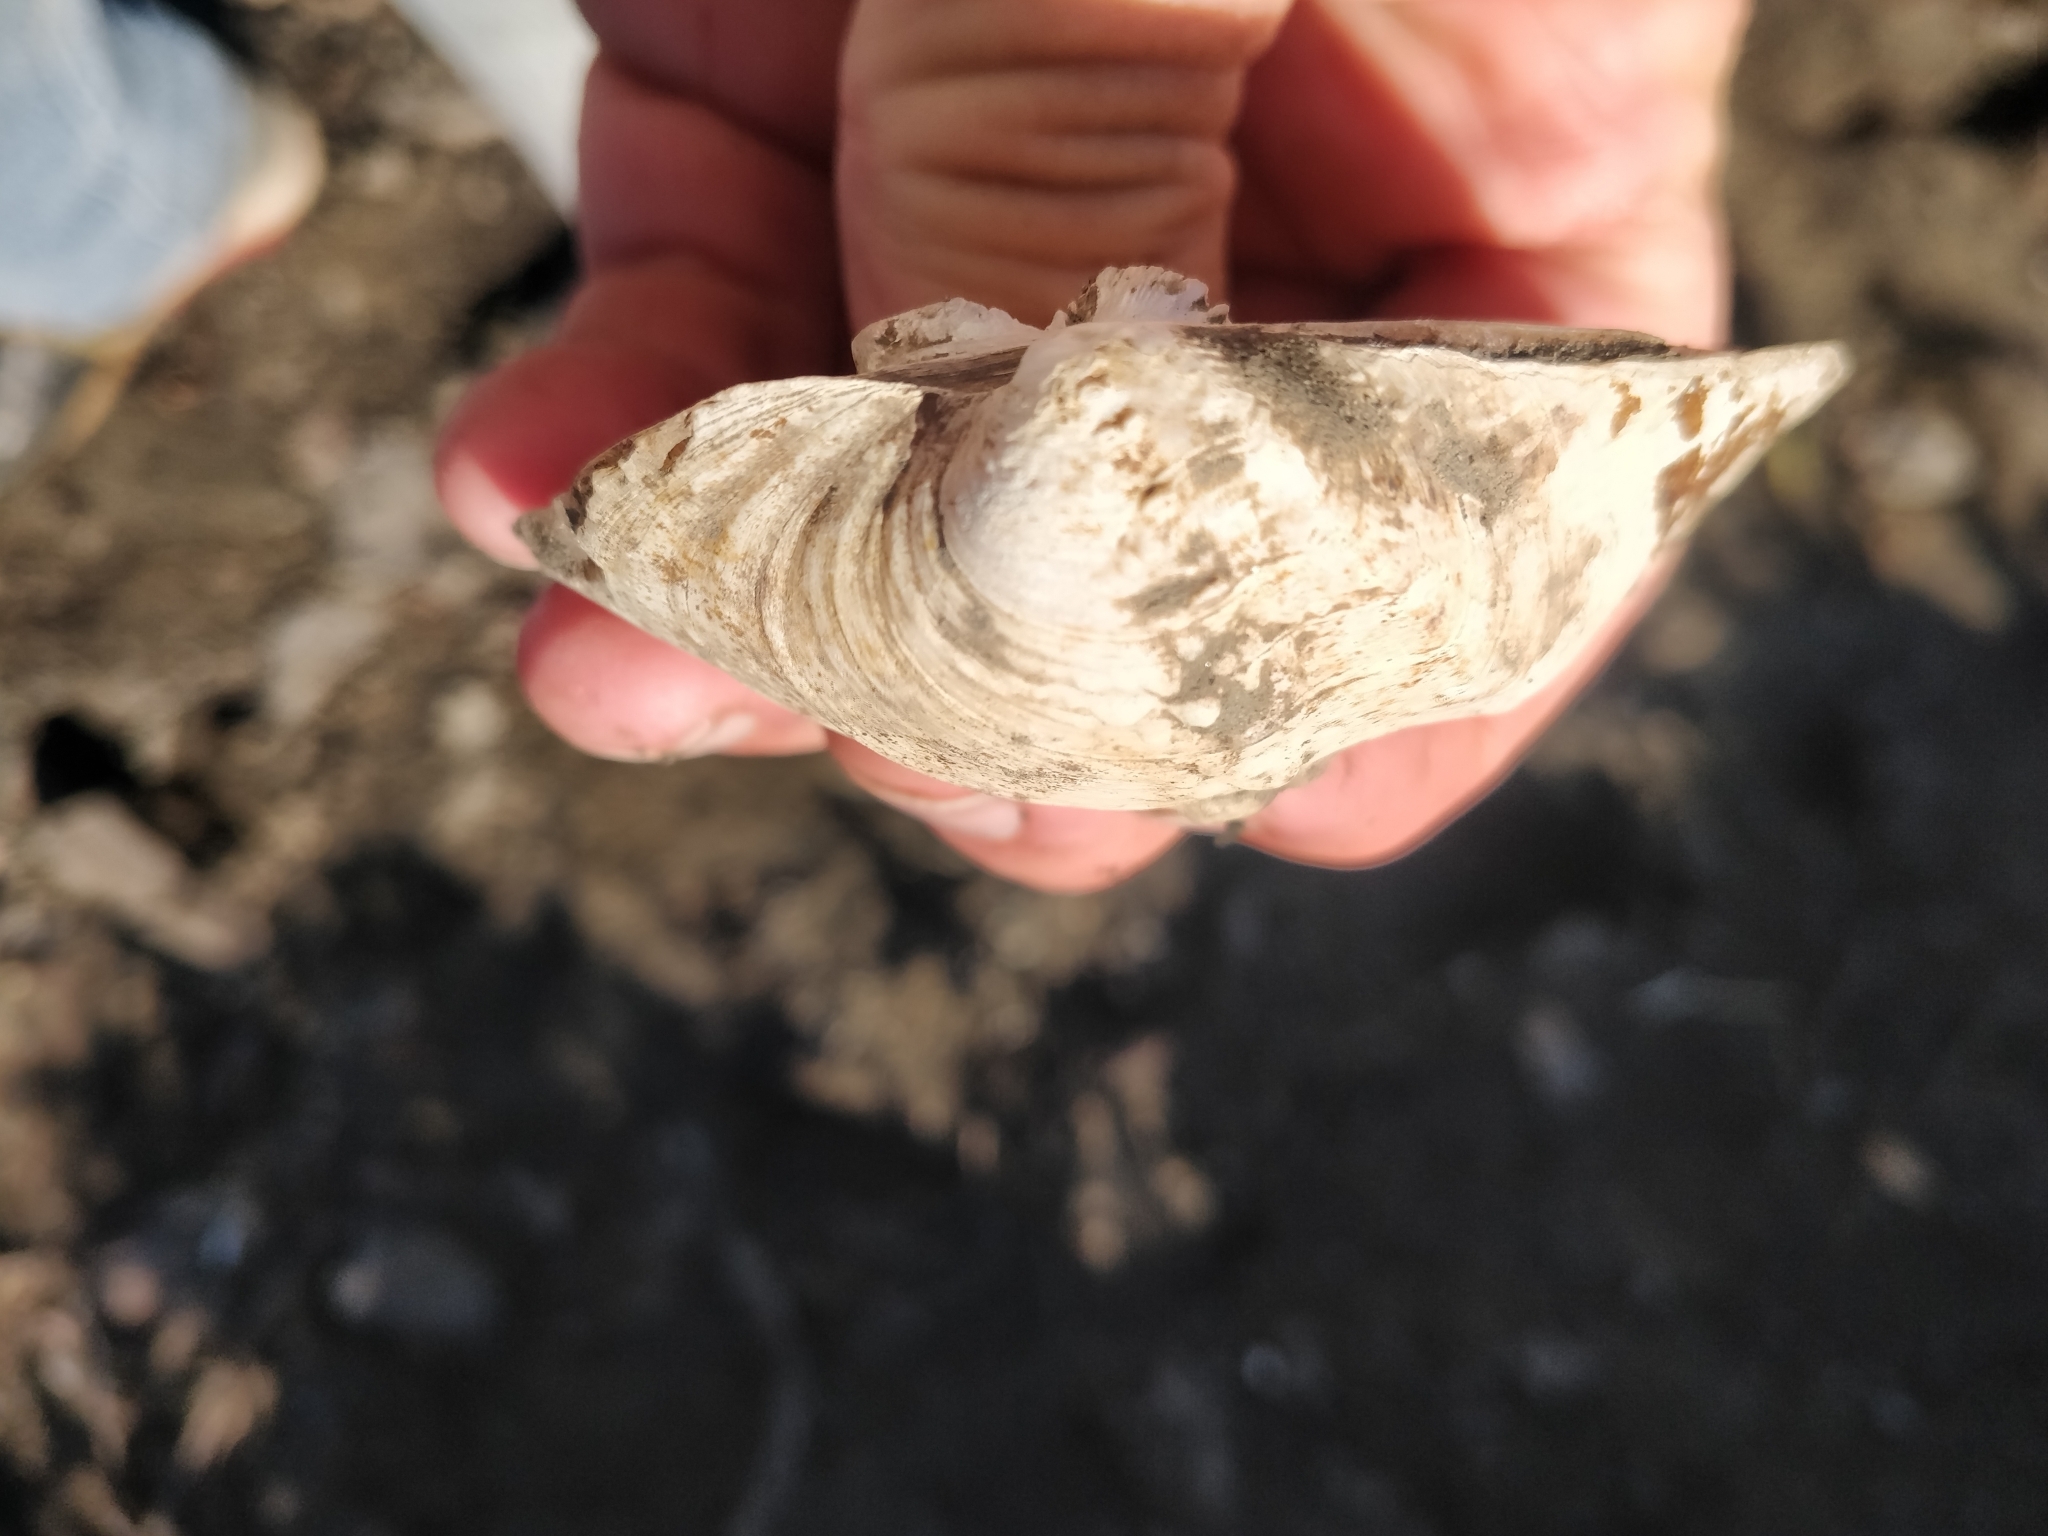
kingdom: Animalia
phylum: Mollusca
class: Bivalvia
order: Unionida
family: Unionidae
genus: Quadrula
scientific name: Quadrula quadrula
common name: Mapleleaf
